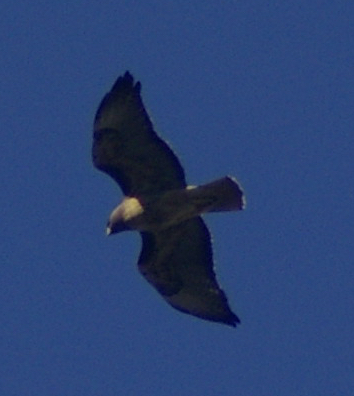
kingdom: Animalia
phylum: Chordata
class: Aves
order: Accipitriformes
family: Accipitridae
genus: Buteo
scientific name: Buteo jamaicensis
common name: Red-tailed hawk
